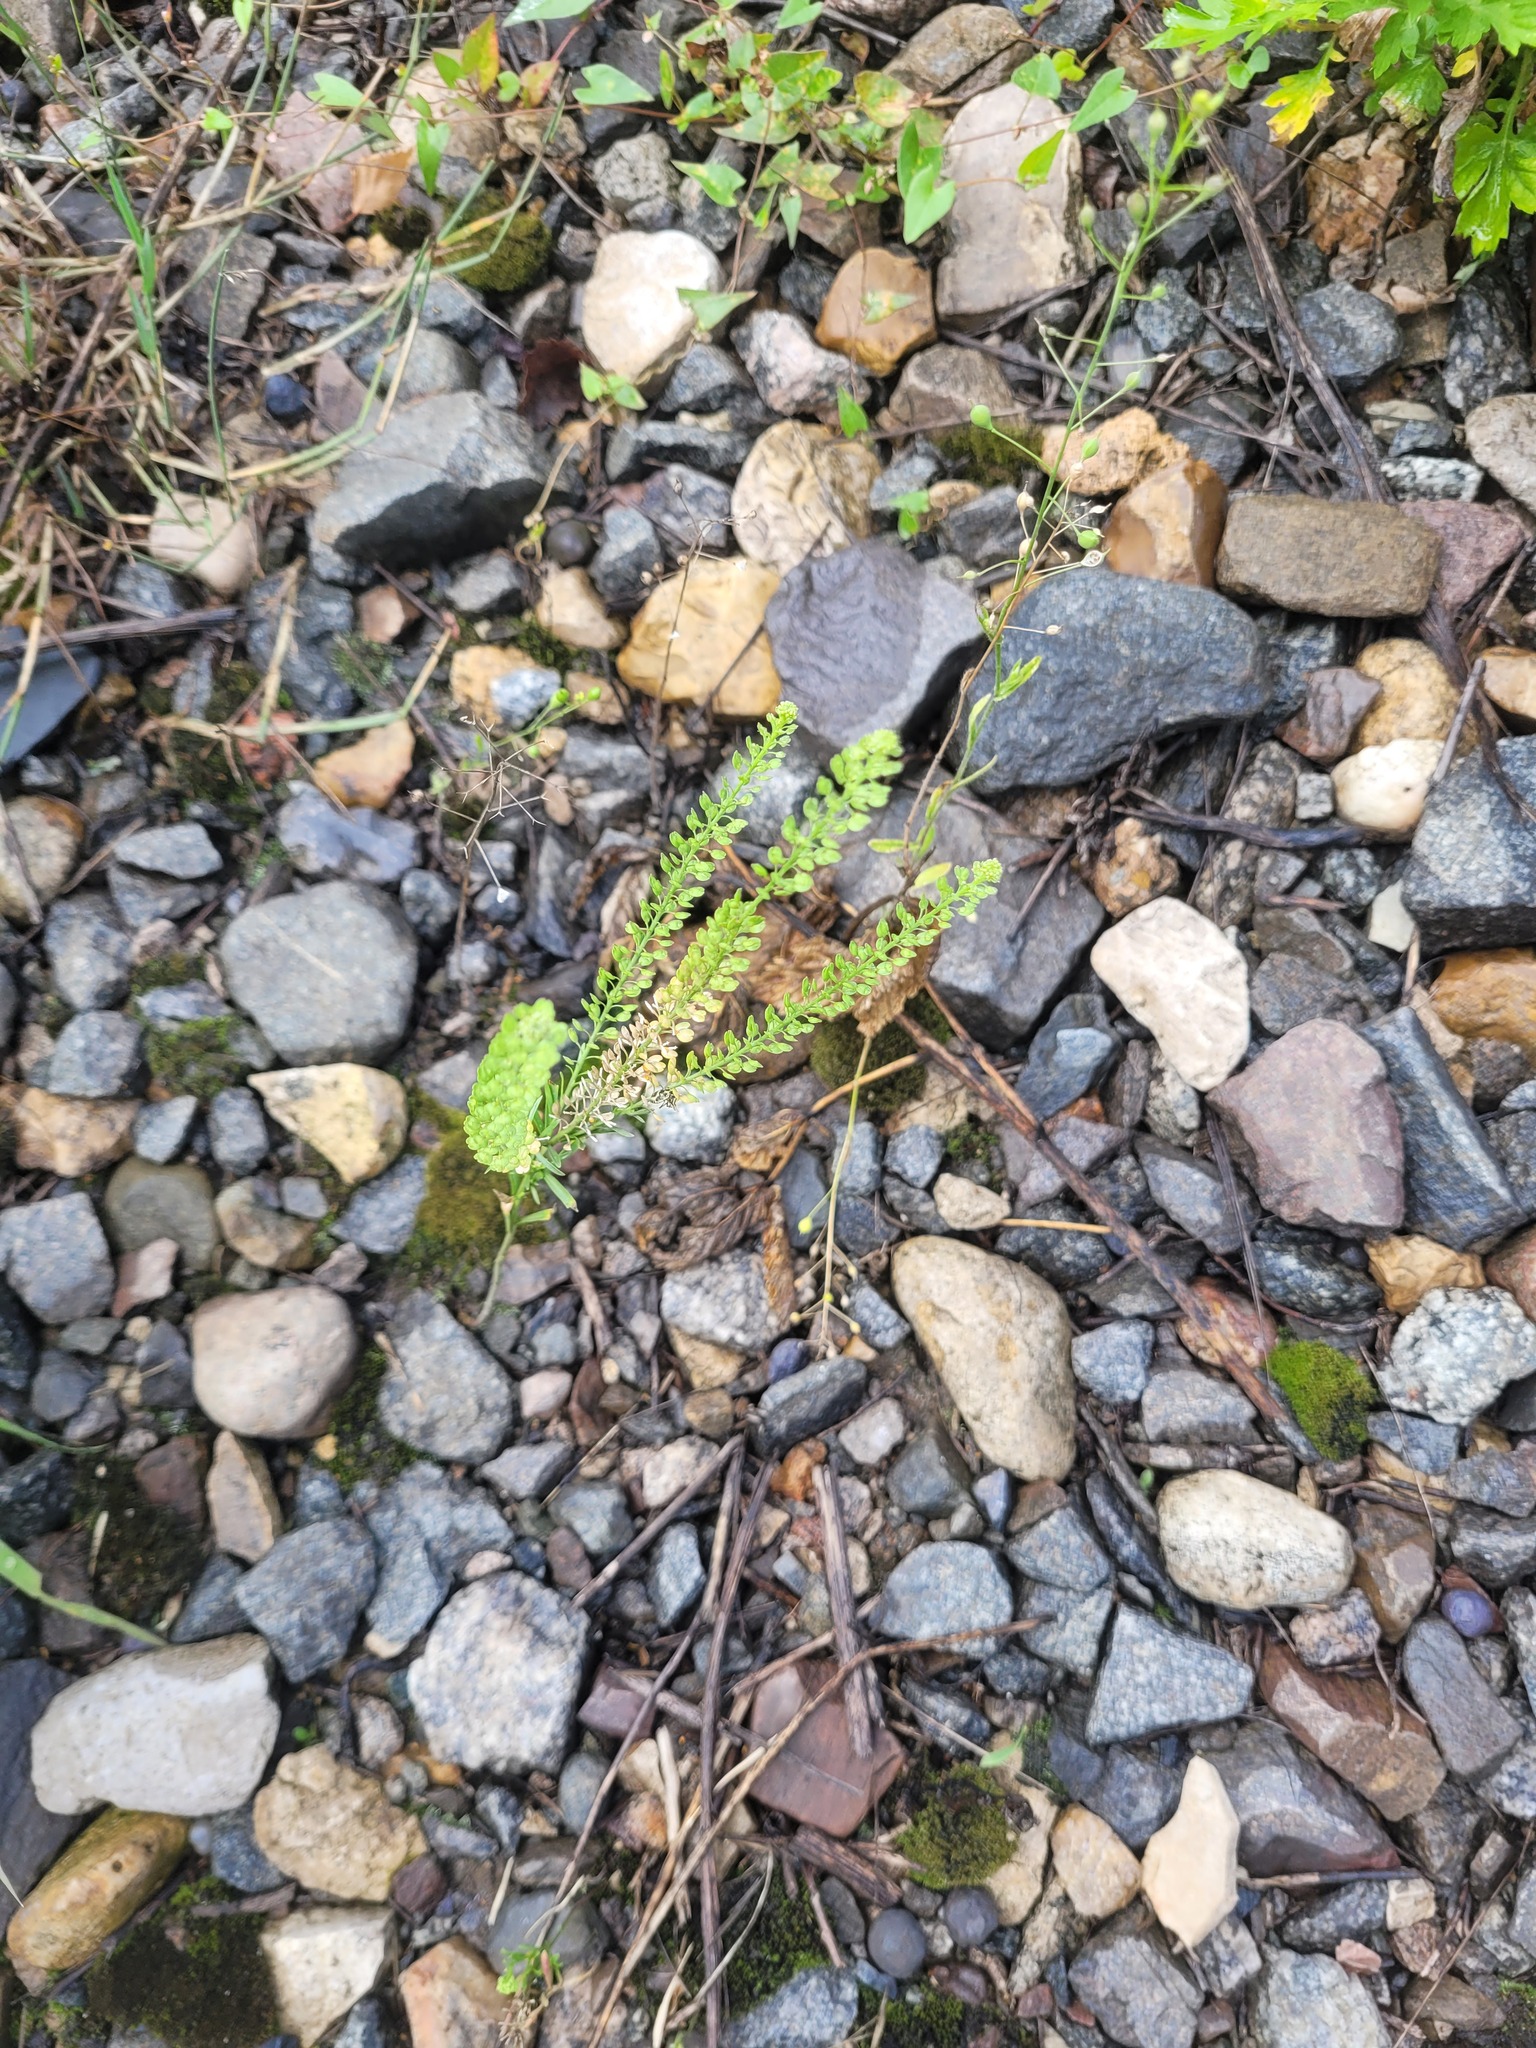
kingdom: Plantae
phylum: Tracheophyta
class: Magnoliopsida
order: Brassicales
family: Brassicaceae
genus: Lepidium
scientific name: Lepidium densiflorum
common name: Miner's pepperwort
